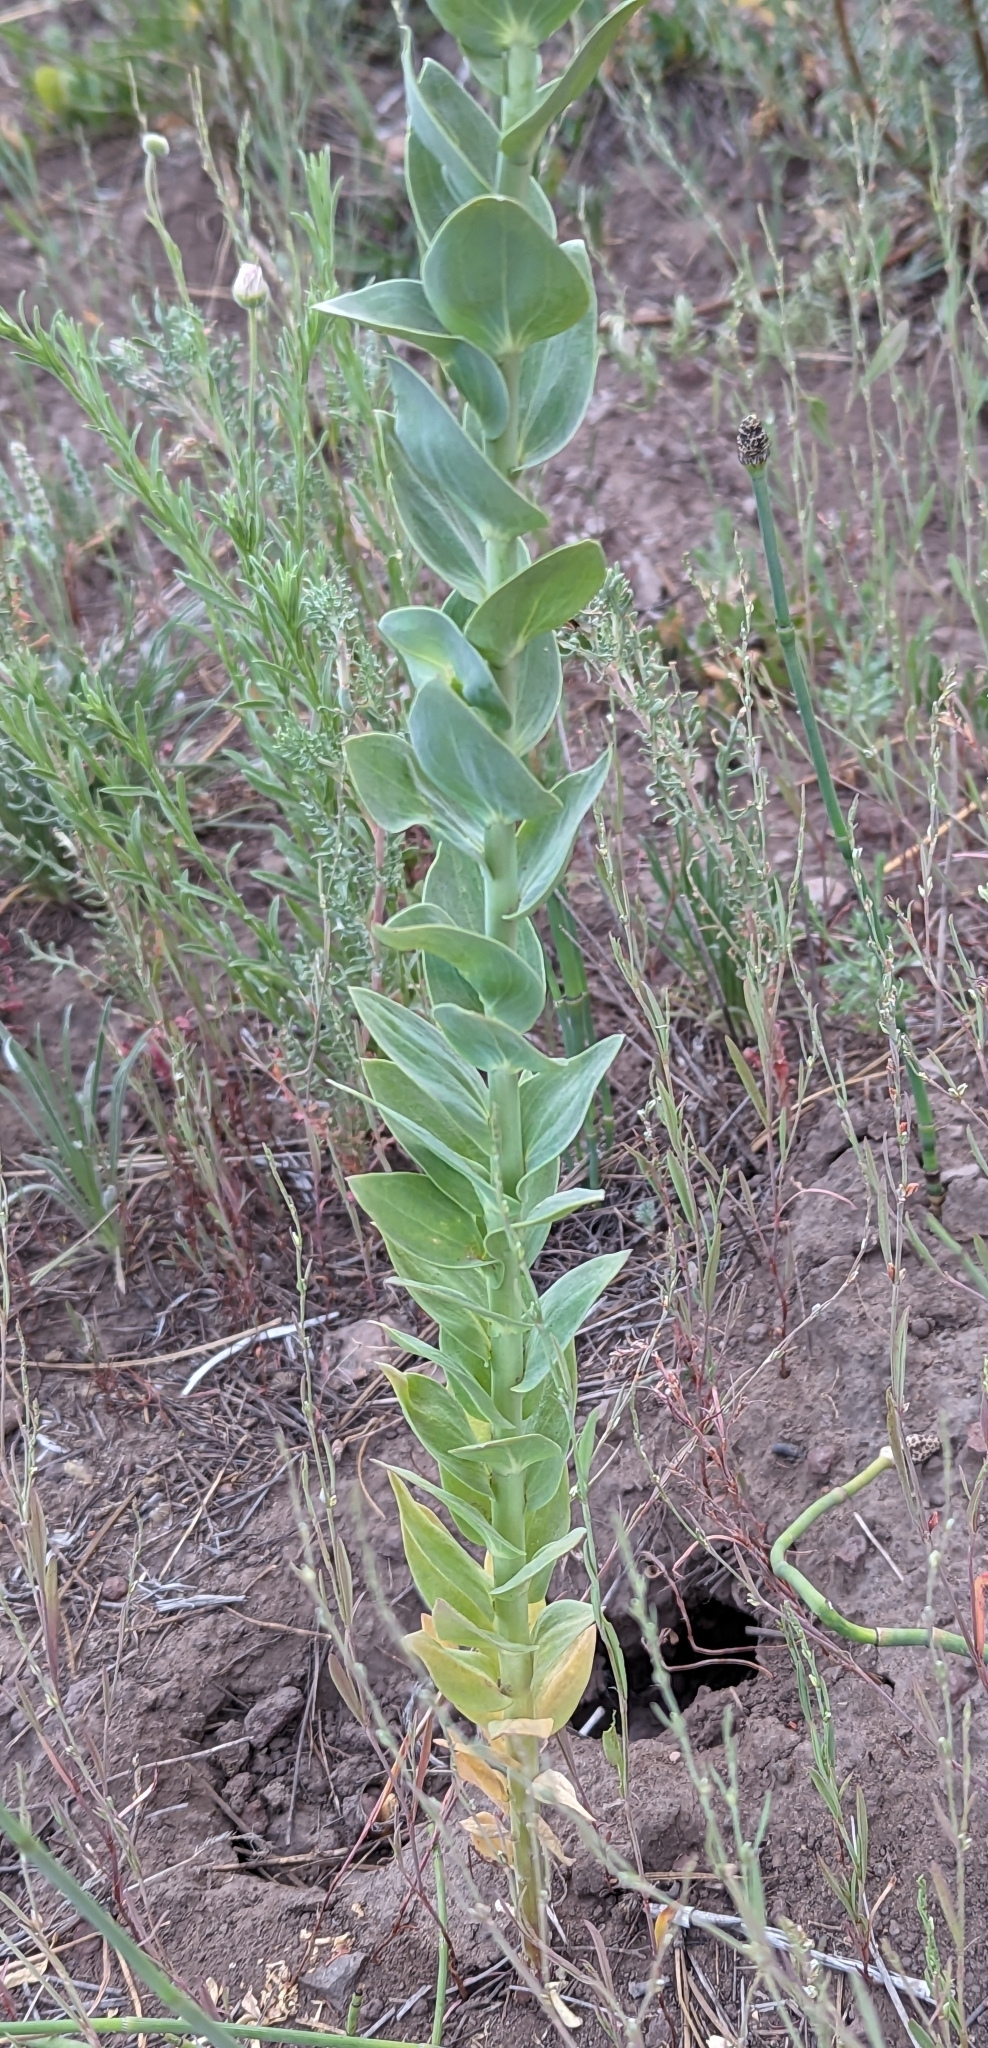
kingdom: Plantae
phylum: Tracheophyta
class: Magnoliopsida
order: Lamiales
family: Plantaginaceae
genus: Linaria
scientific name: Linaria dalmatica
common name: Dalmatian toadflax
